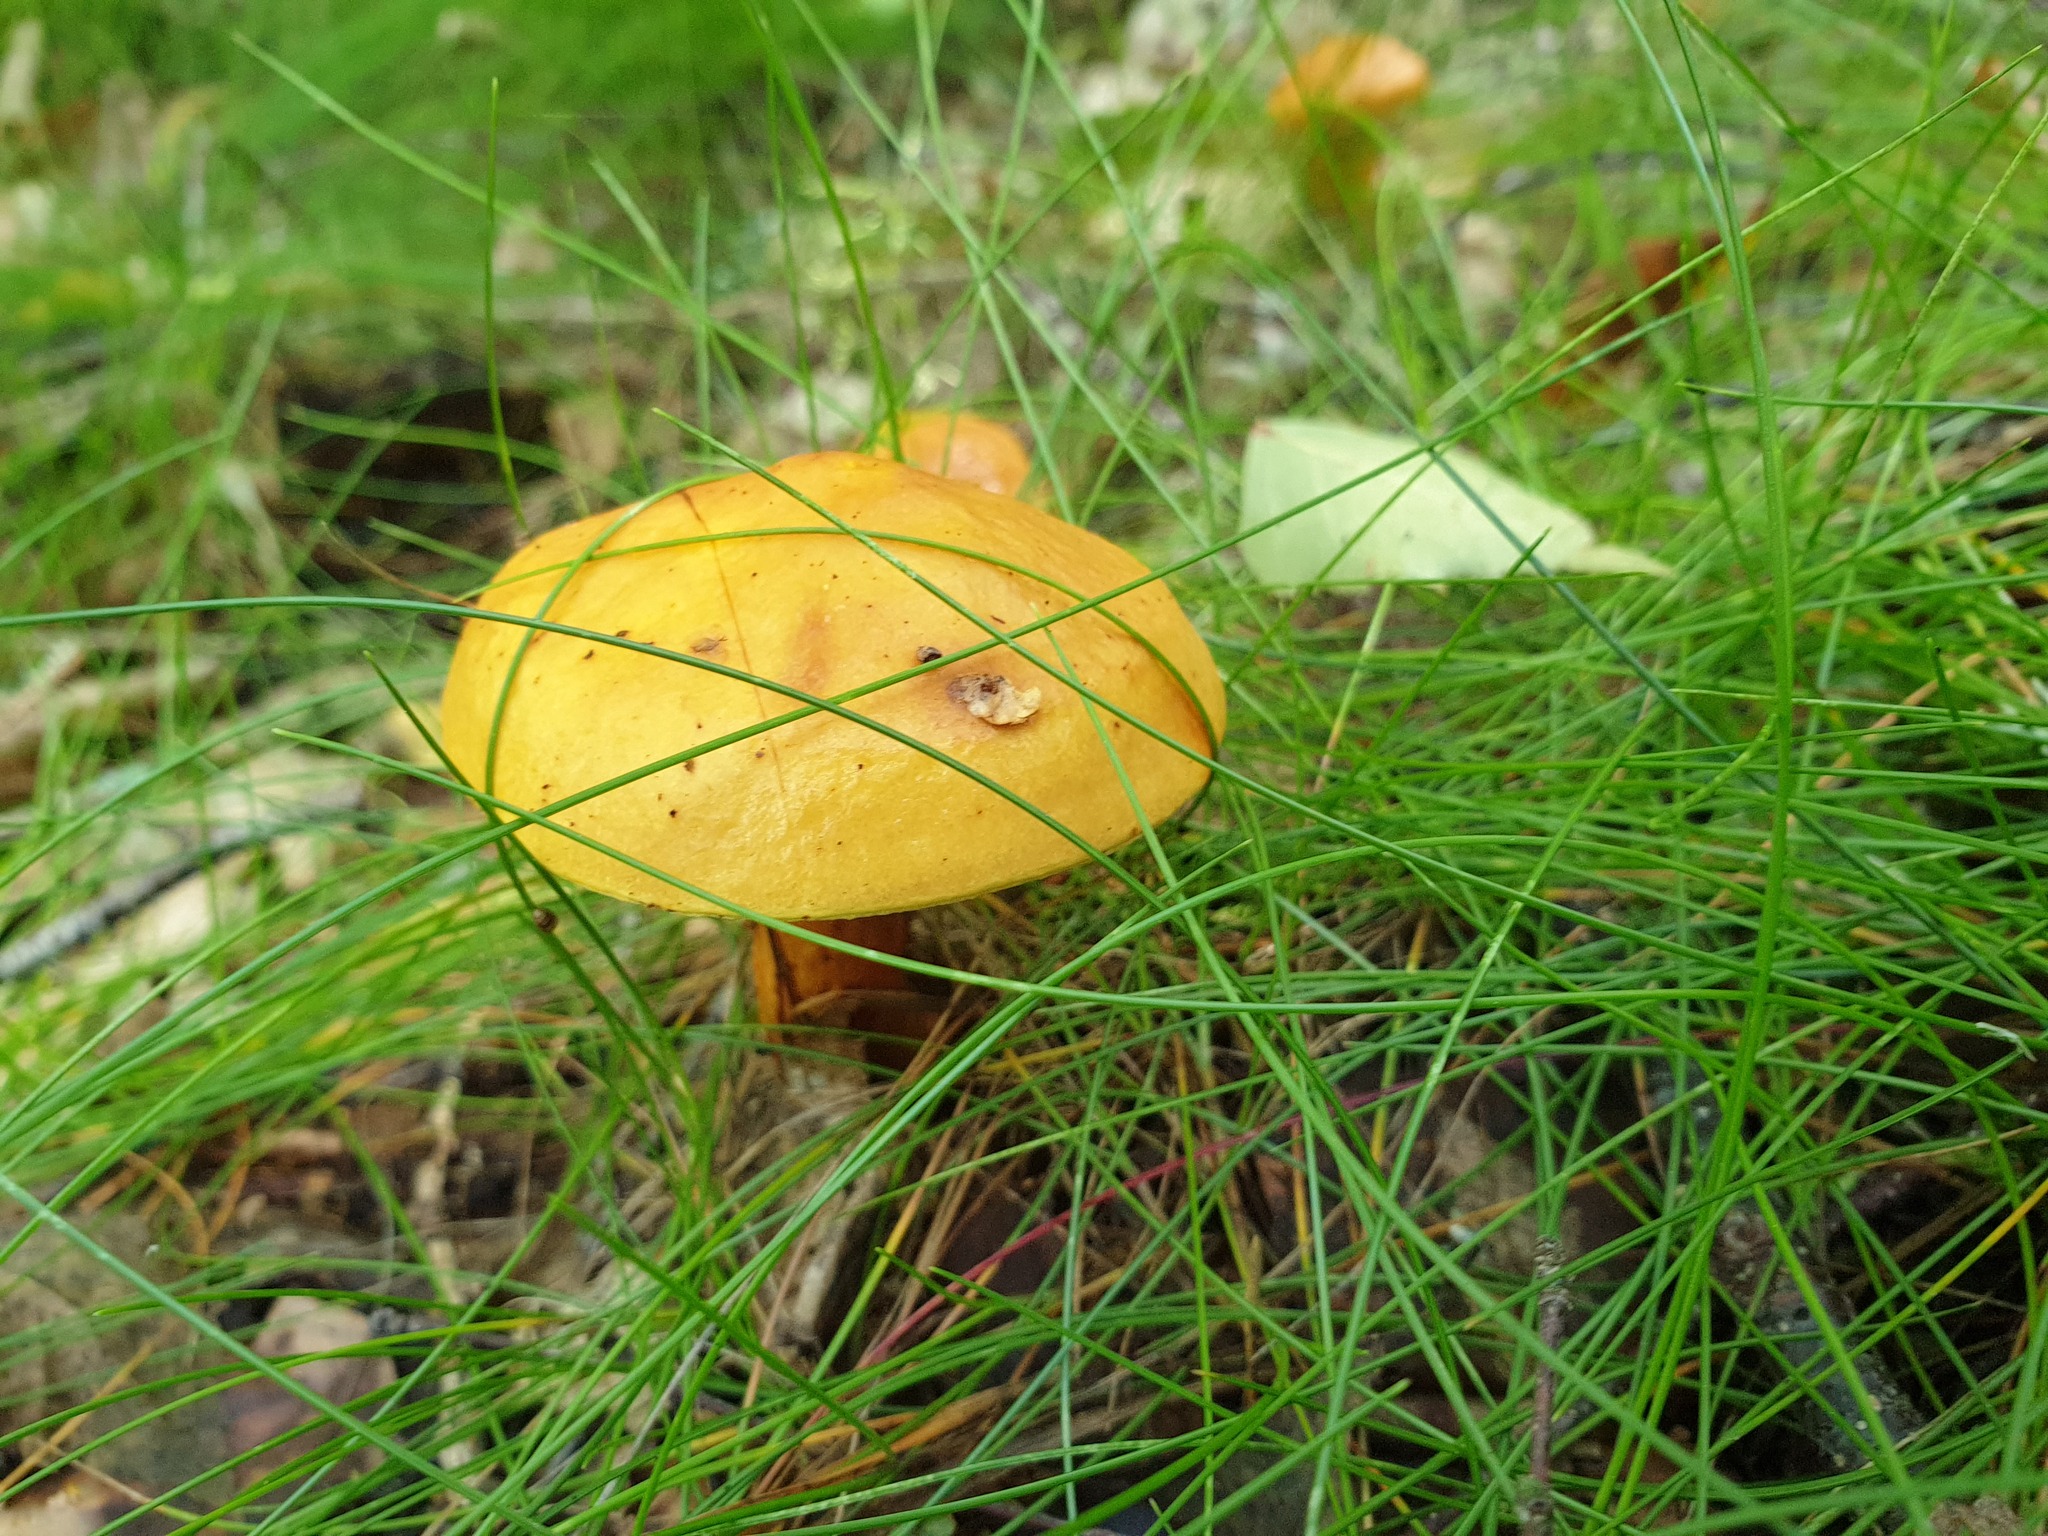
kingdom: Fungi
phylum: Basidiomycota
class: Agaricomycetes
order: Boletales
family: Suillaceae
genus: Suillus
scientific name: Suillus grevillei
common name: Larch bolete
